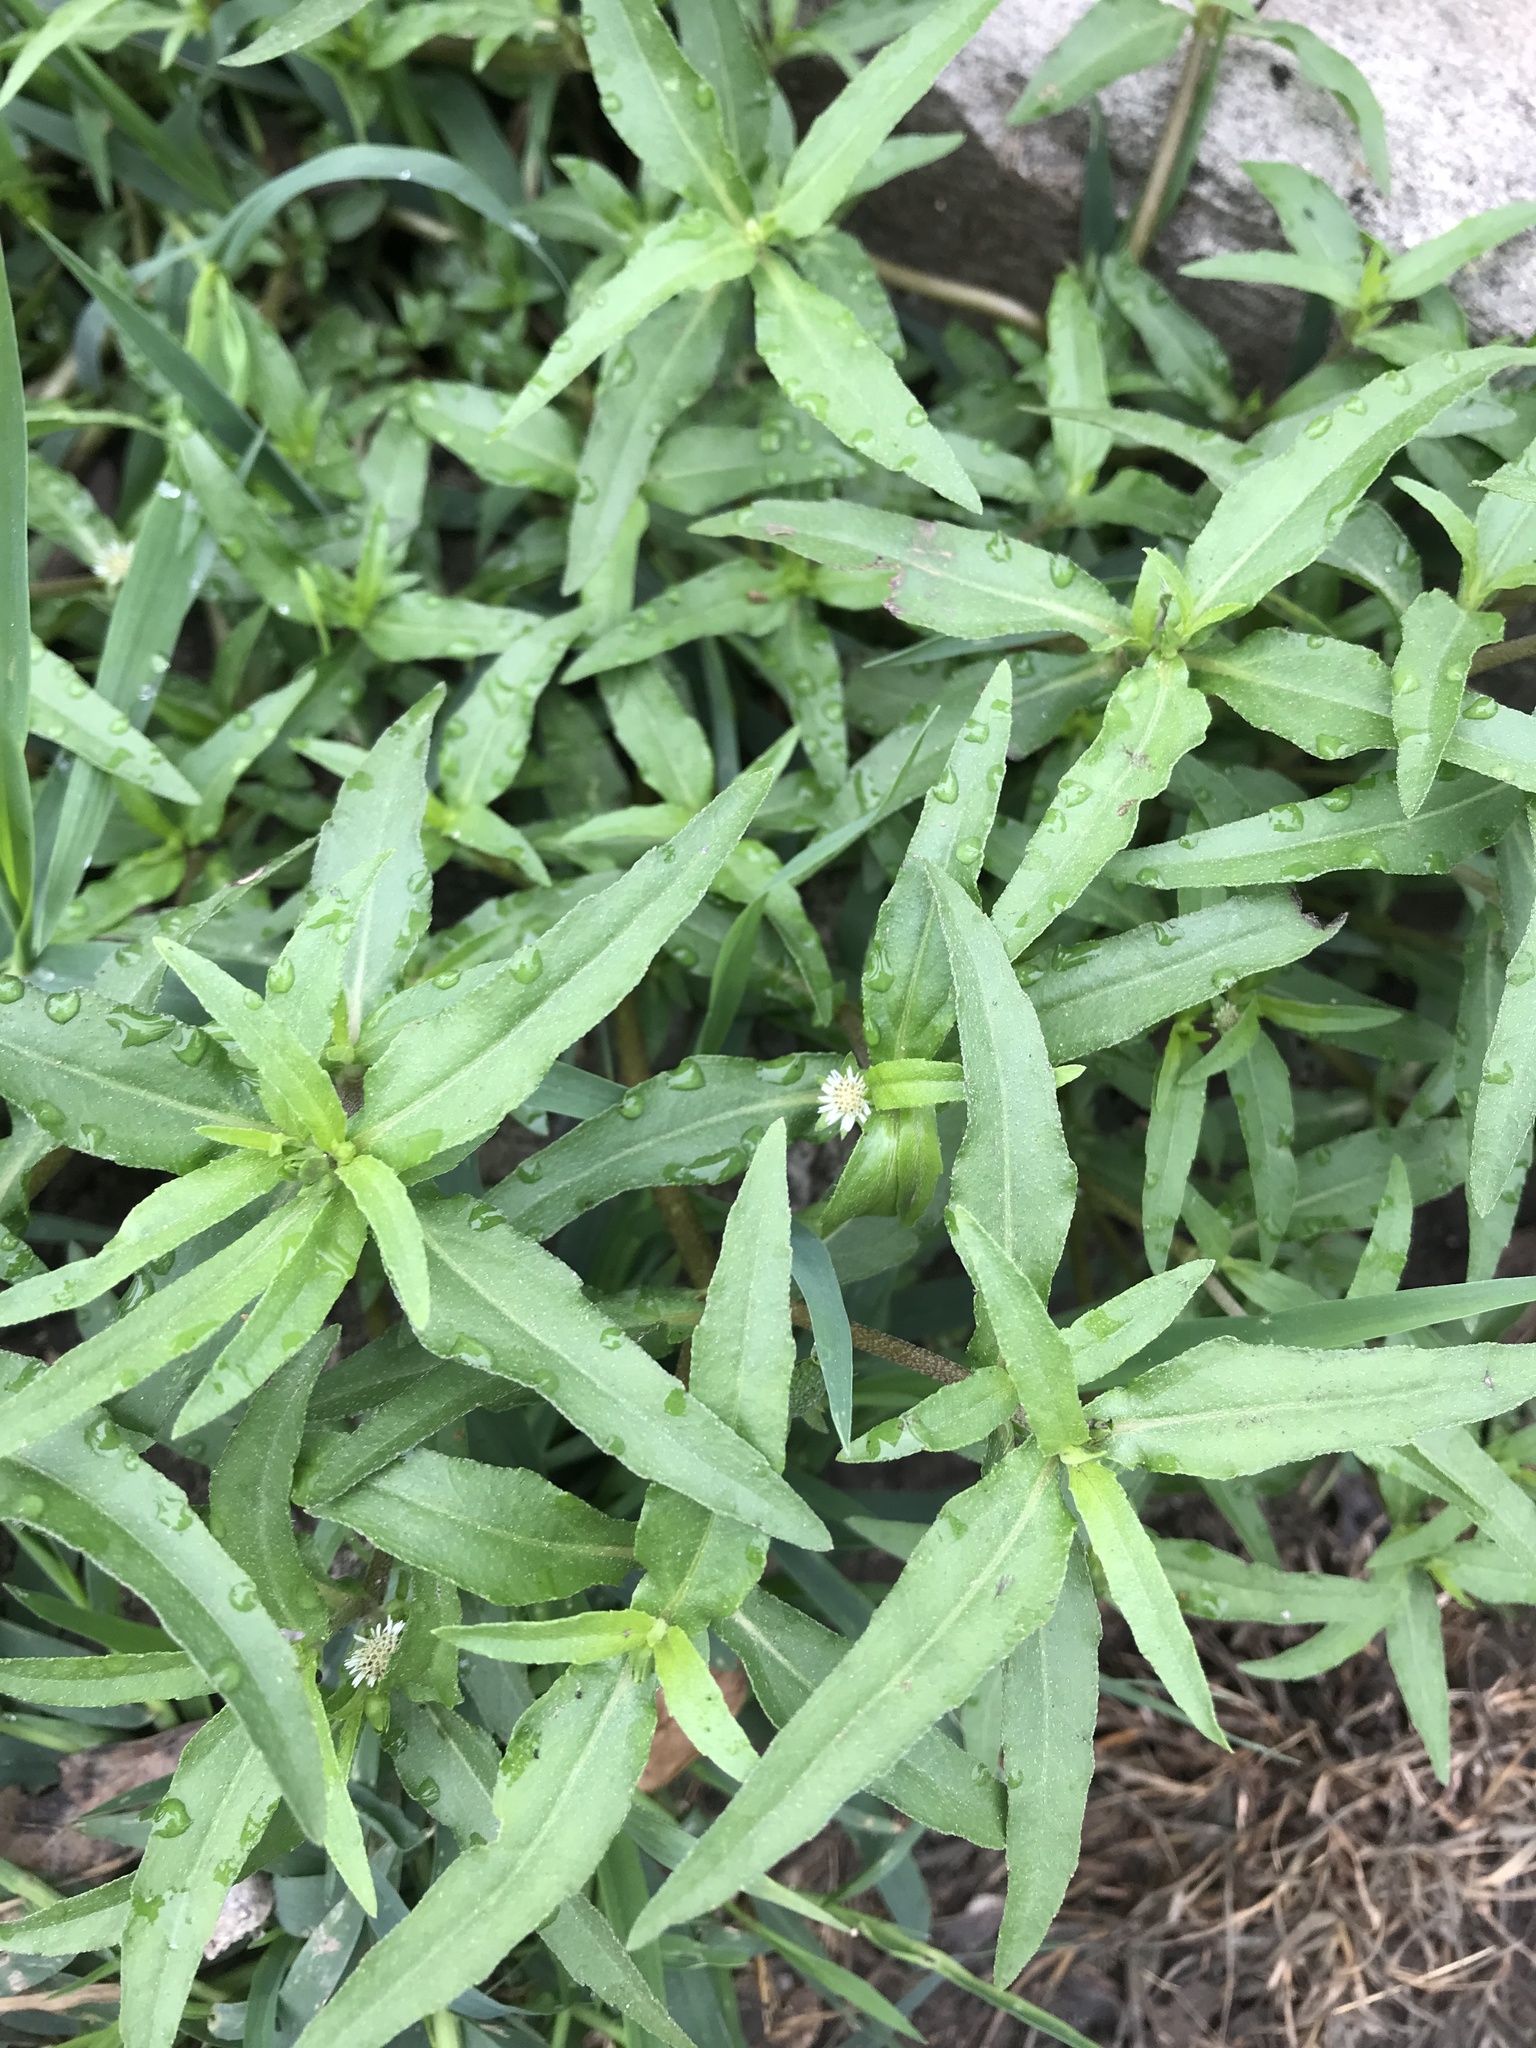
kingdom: Plantae
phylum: Tracheophyta
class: Magnoliopsida
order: Asterales
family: Asteraceae
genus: Eclipta
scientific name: Eclipta prostrata
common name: False daisy
